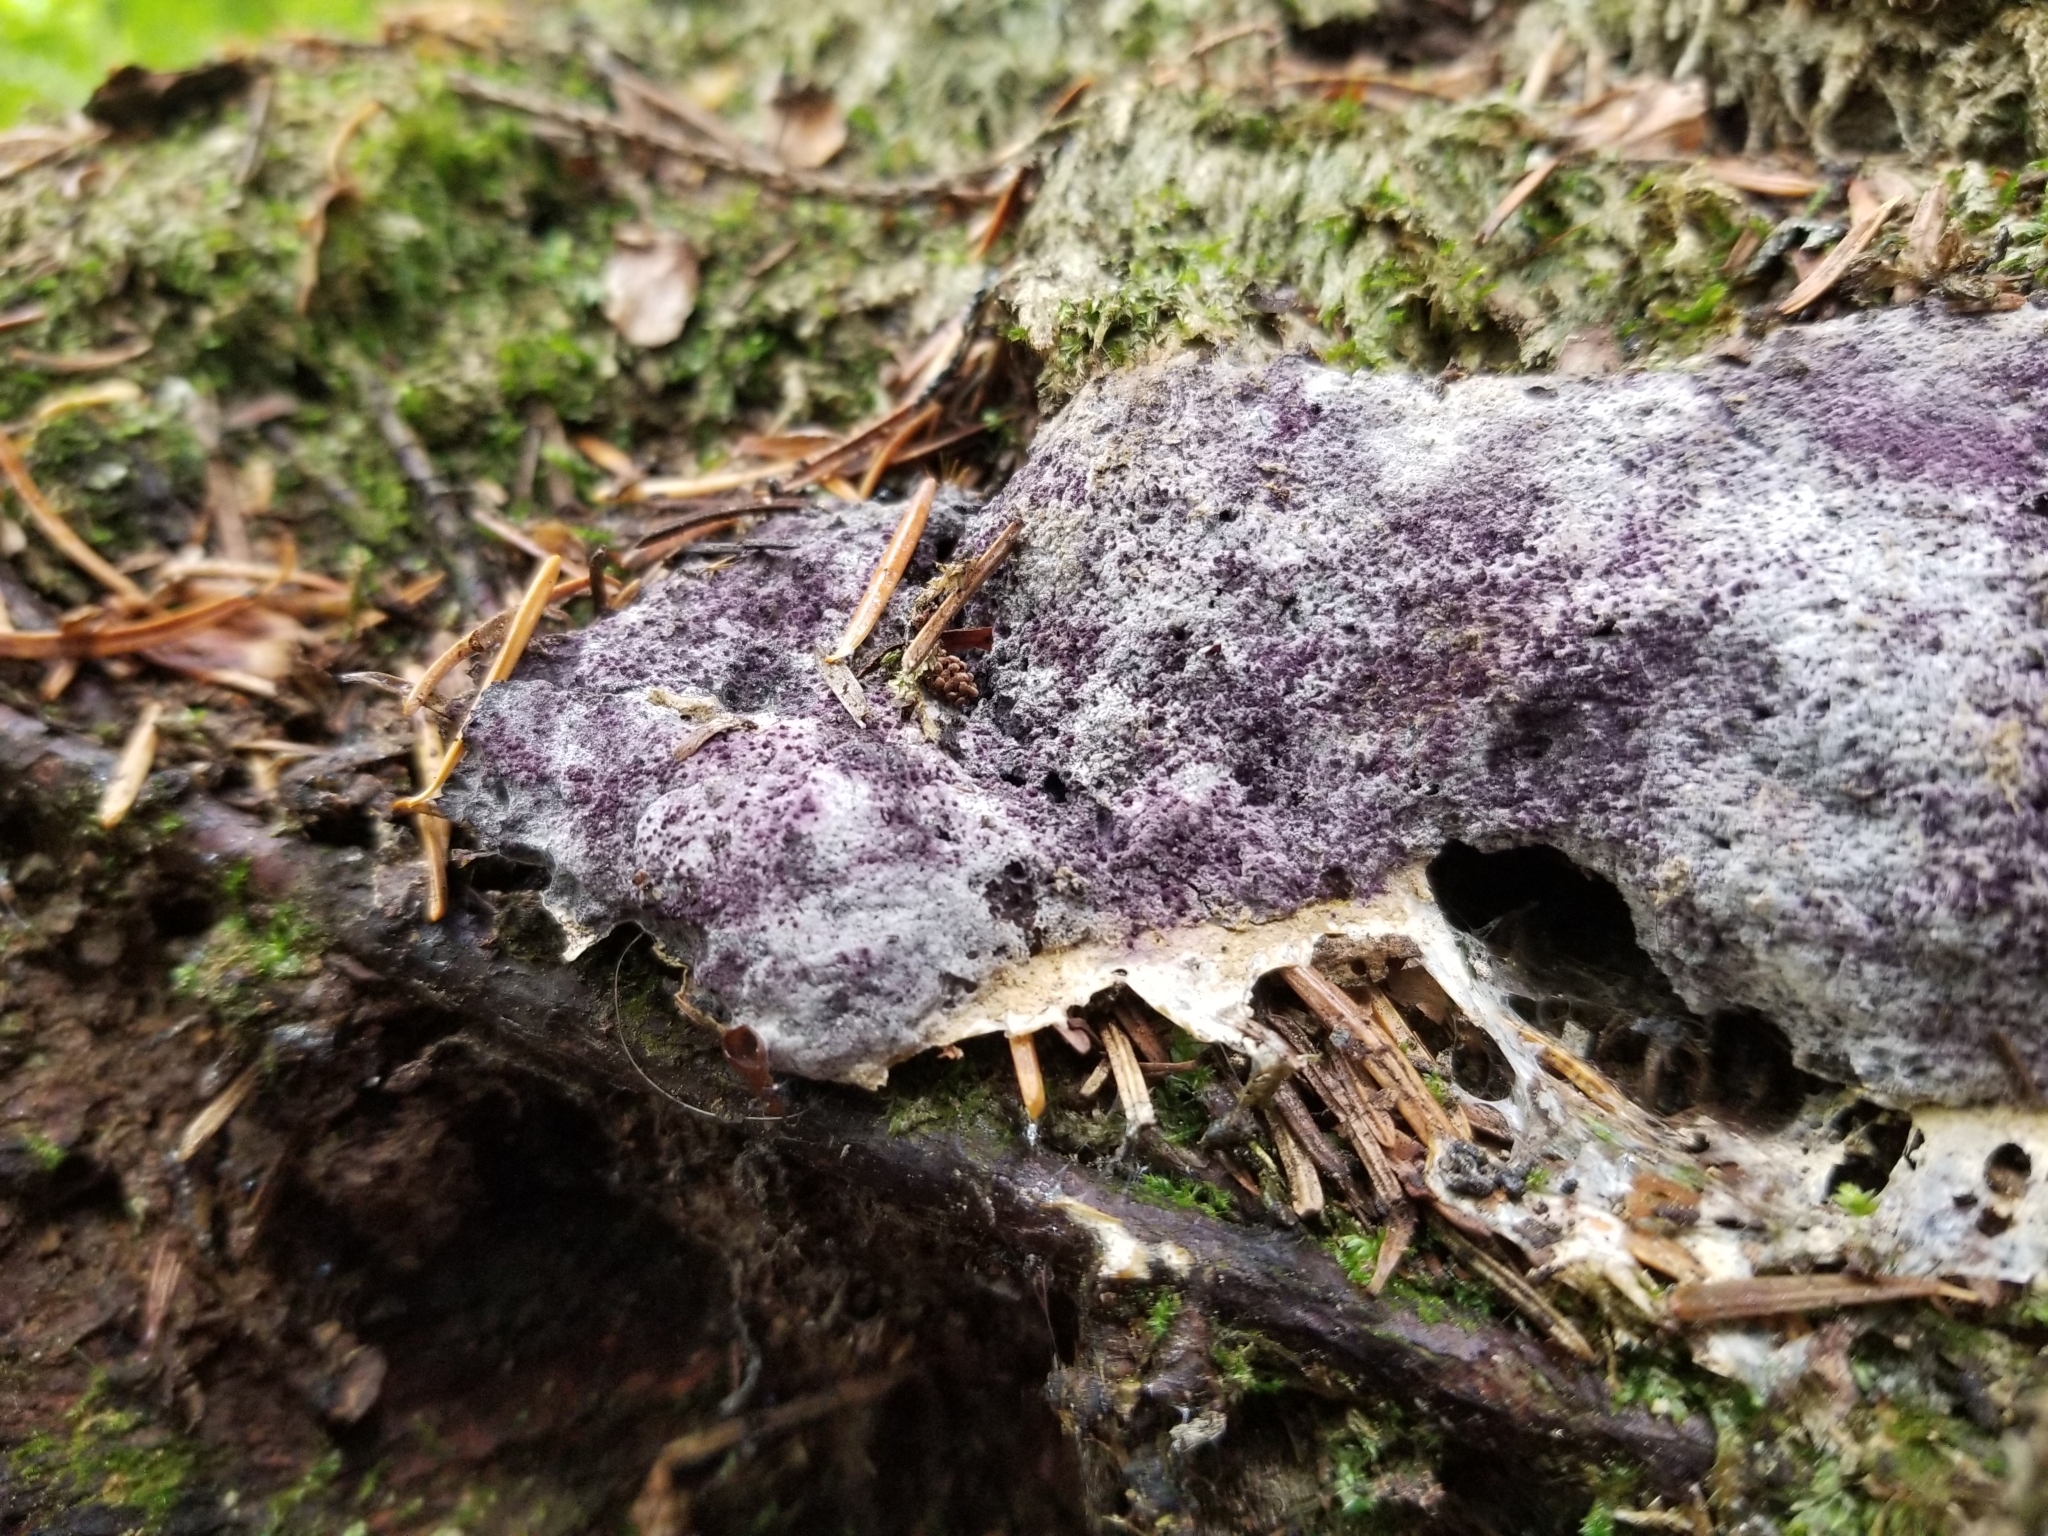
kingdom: Fungi
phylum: Ascomycota
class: Sordariomycetes
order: Hypocreales
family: Bionectriaceae
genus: Nectriopsis
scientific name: Nectriopsis violacea
